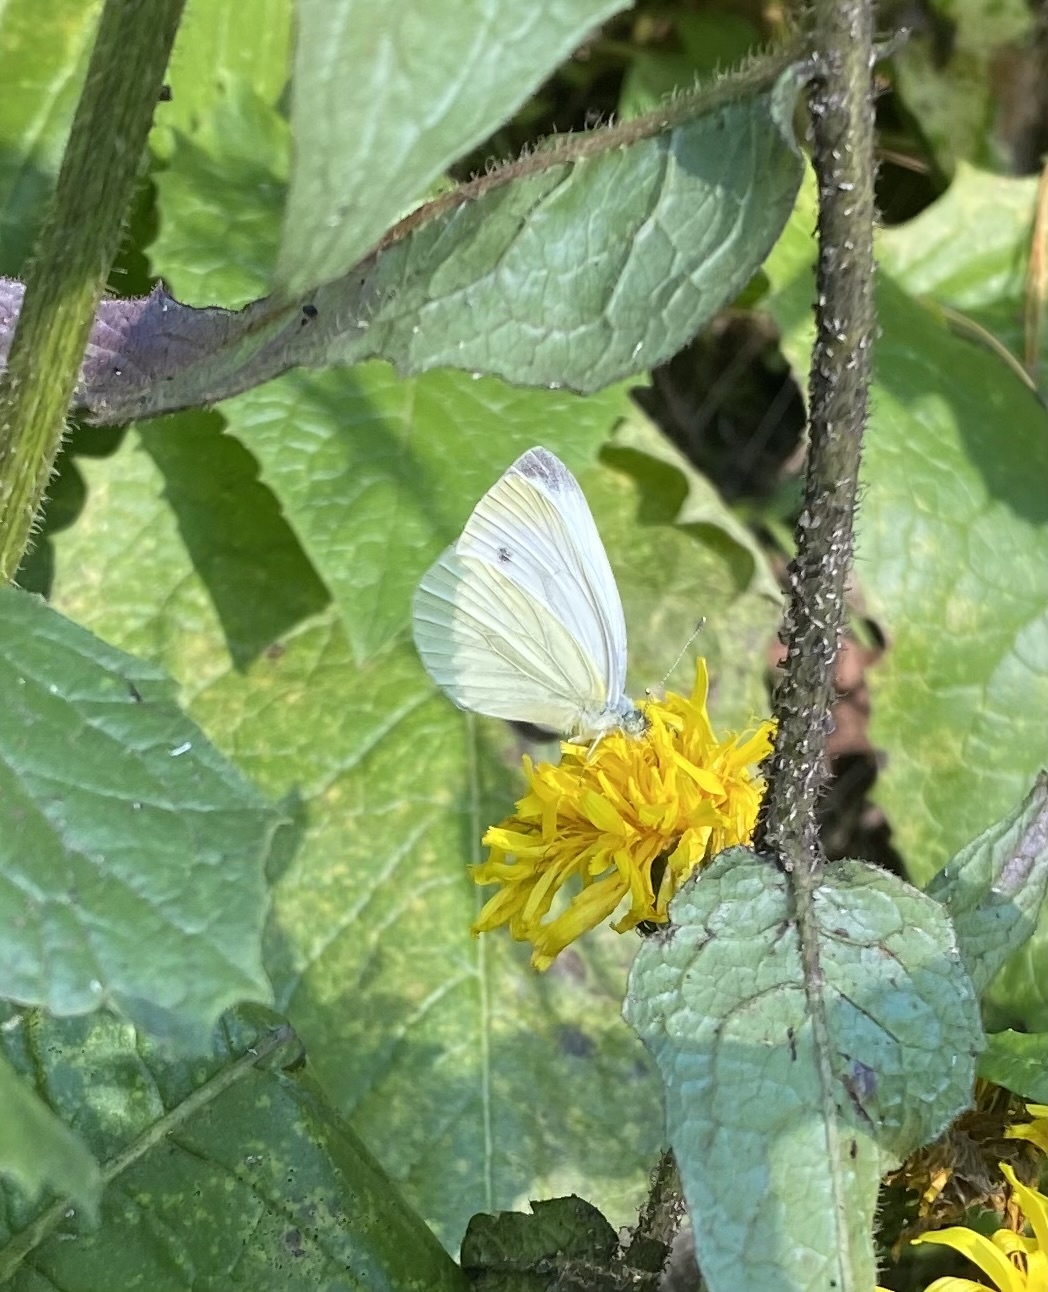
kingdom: Animalia
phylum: Arthropoda
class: Insecta
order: Lepidoptera
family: Pieridae
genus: Pieris
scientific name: Pieris napi
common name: Green-veined white
